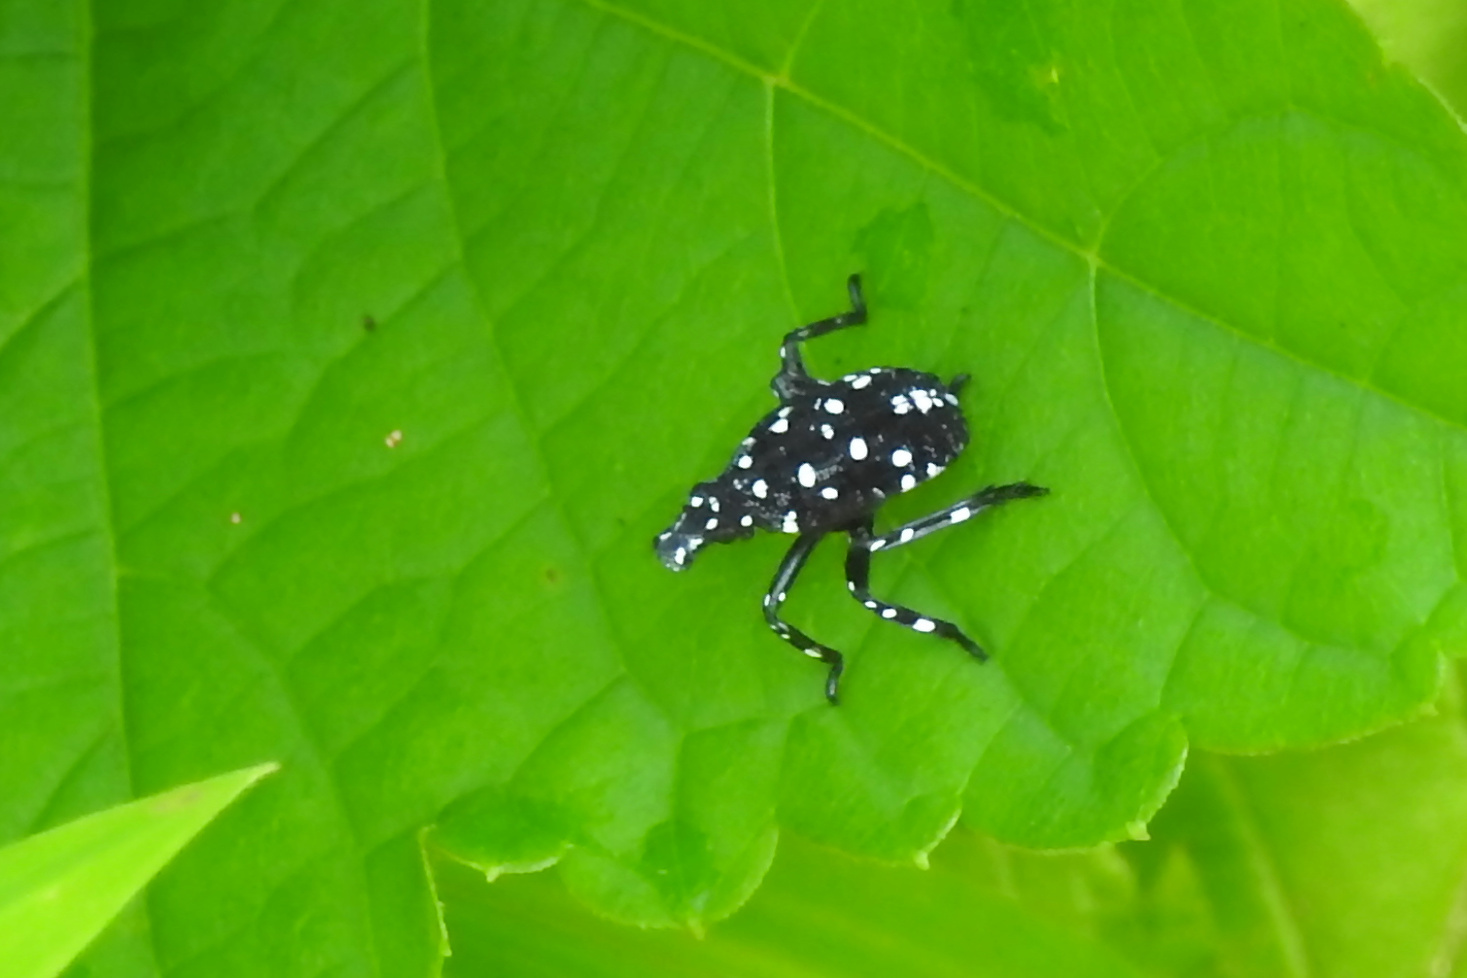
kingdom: Animalia
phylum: Arthropoda
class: Insecta
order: Hemiptera
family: Fulgoridae
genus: Lycorma
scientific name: Lycorma delicatula
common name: Spotted lanternfly
